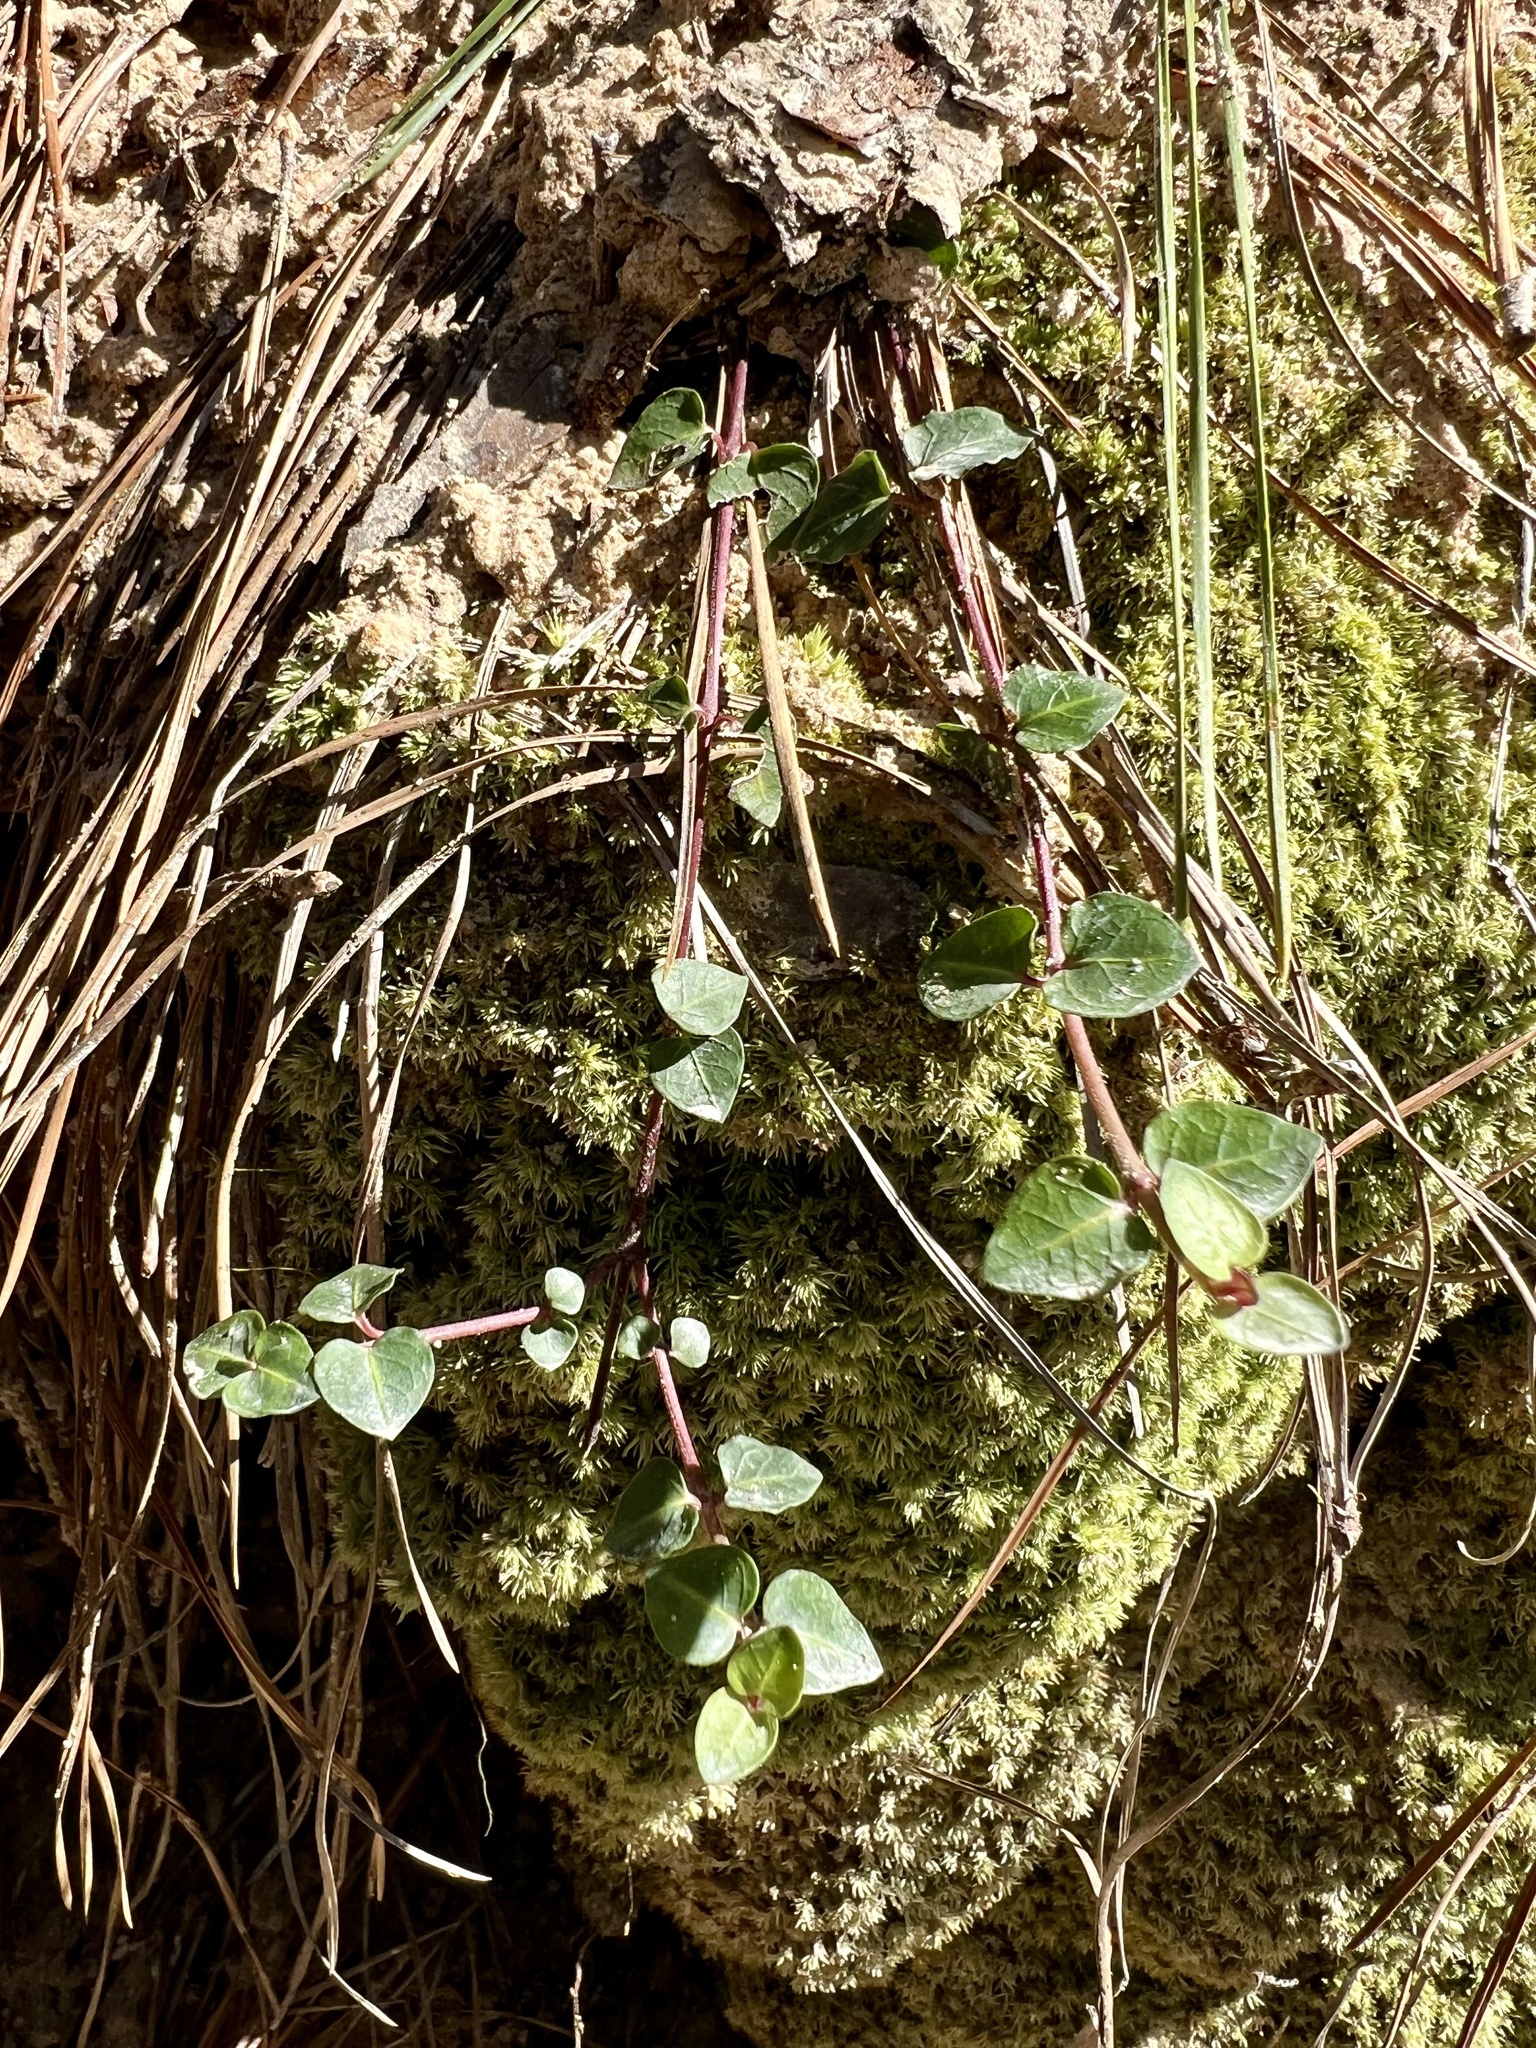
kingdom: Plantae
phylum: Tracheophyta
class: Magnoliopsida
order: Gentianales
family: Rubiaceae
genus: Mitchella
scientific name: Mitchella repens
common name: Partridge-berry
